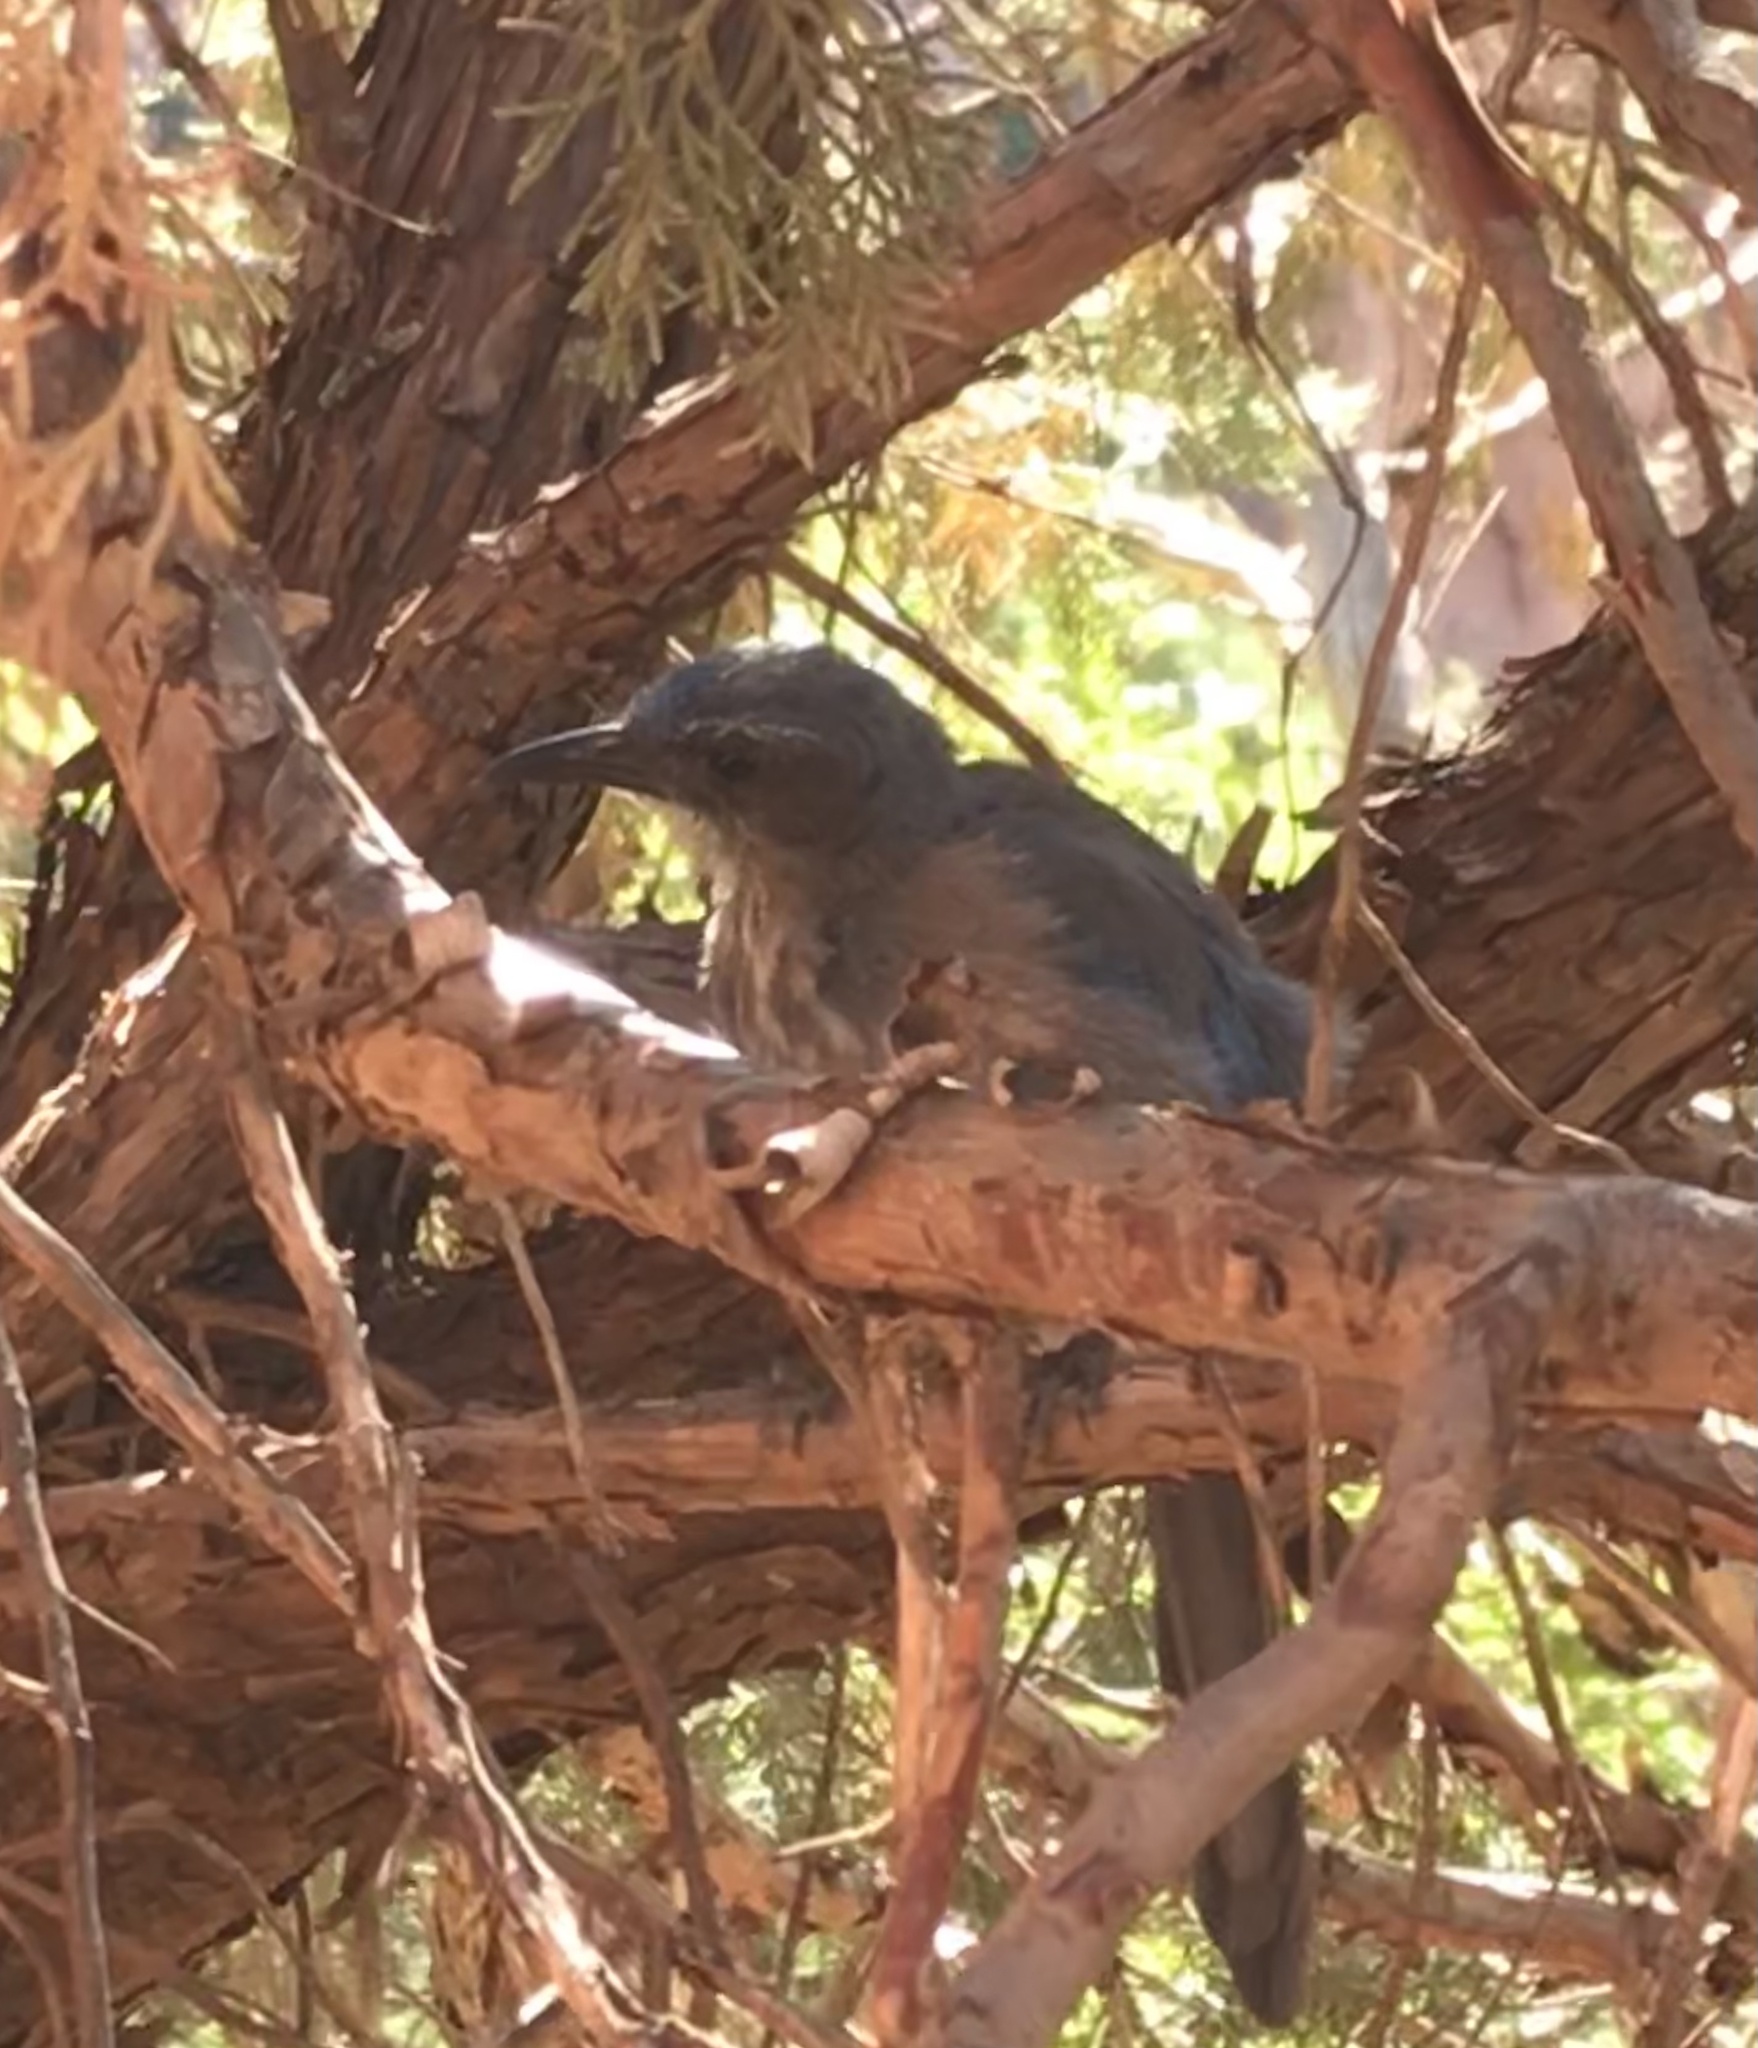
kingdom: Animalia
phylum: Chordata
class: Aves
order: Passeriformes
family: Corvidae
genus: Aphelocoma
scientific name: Aphelocoma woodhouseii
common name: Woodhouse's scrub-jay
